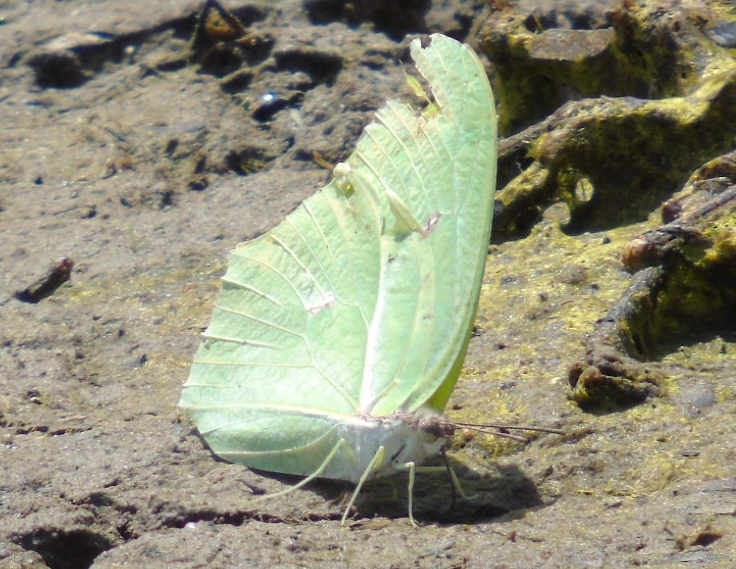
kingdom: Animalia
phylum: Arthropoda
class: Insecta
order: Lepidoptera
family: Pieridae
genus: Anteos
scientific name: Anteos maerula
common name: Angled sulphur
